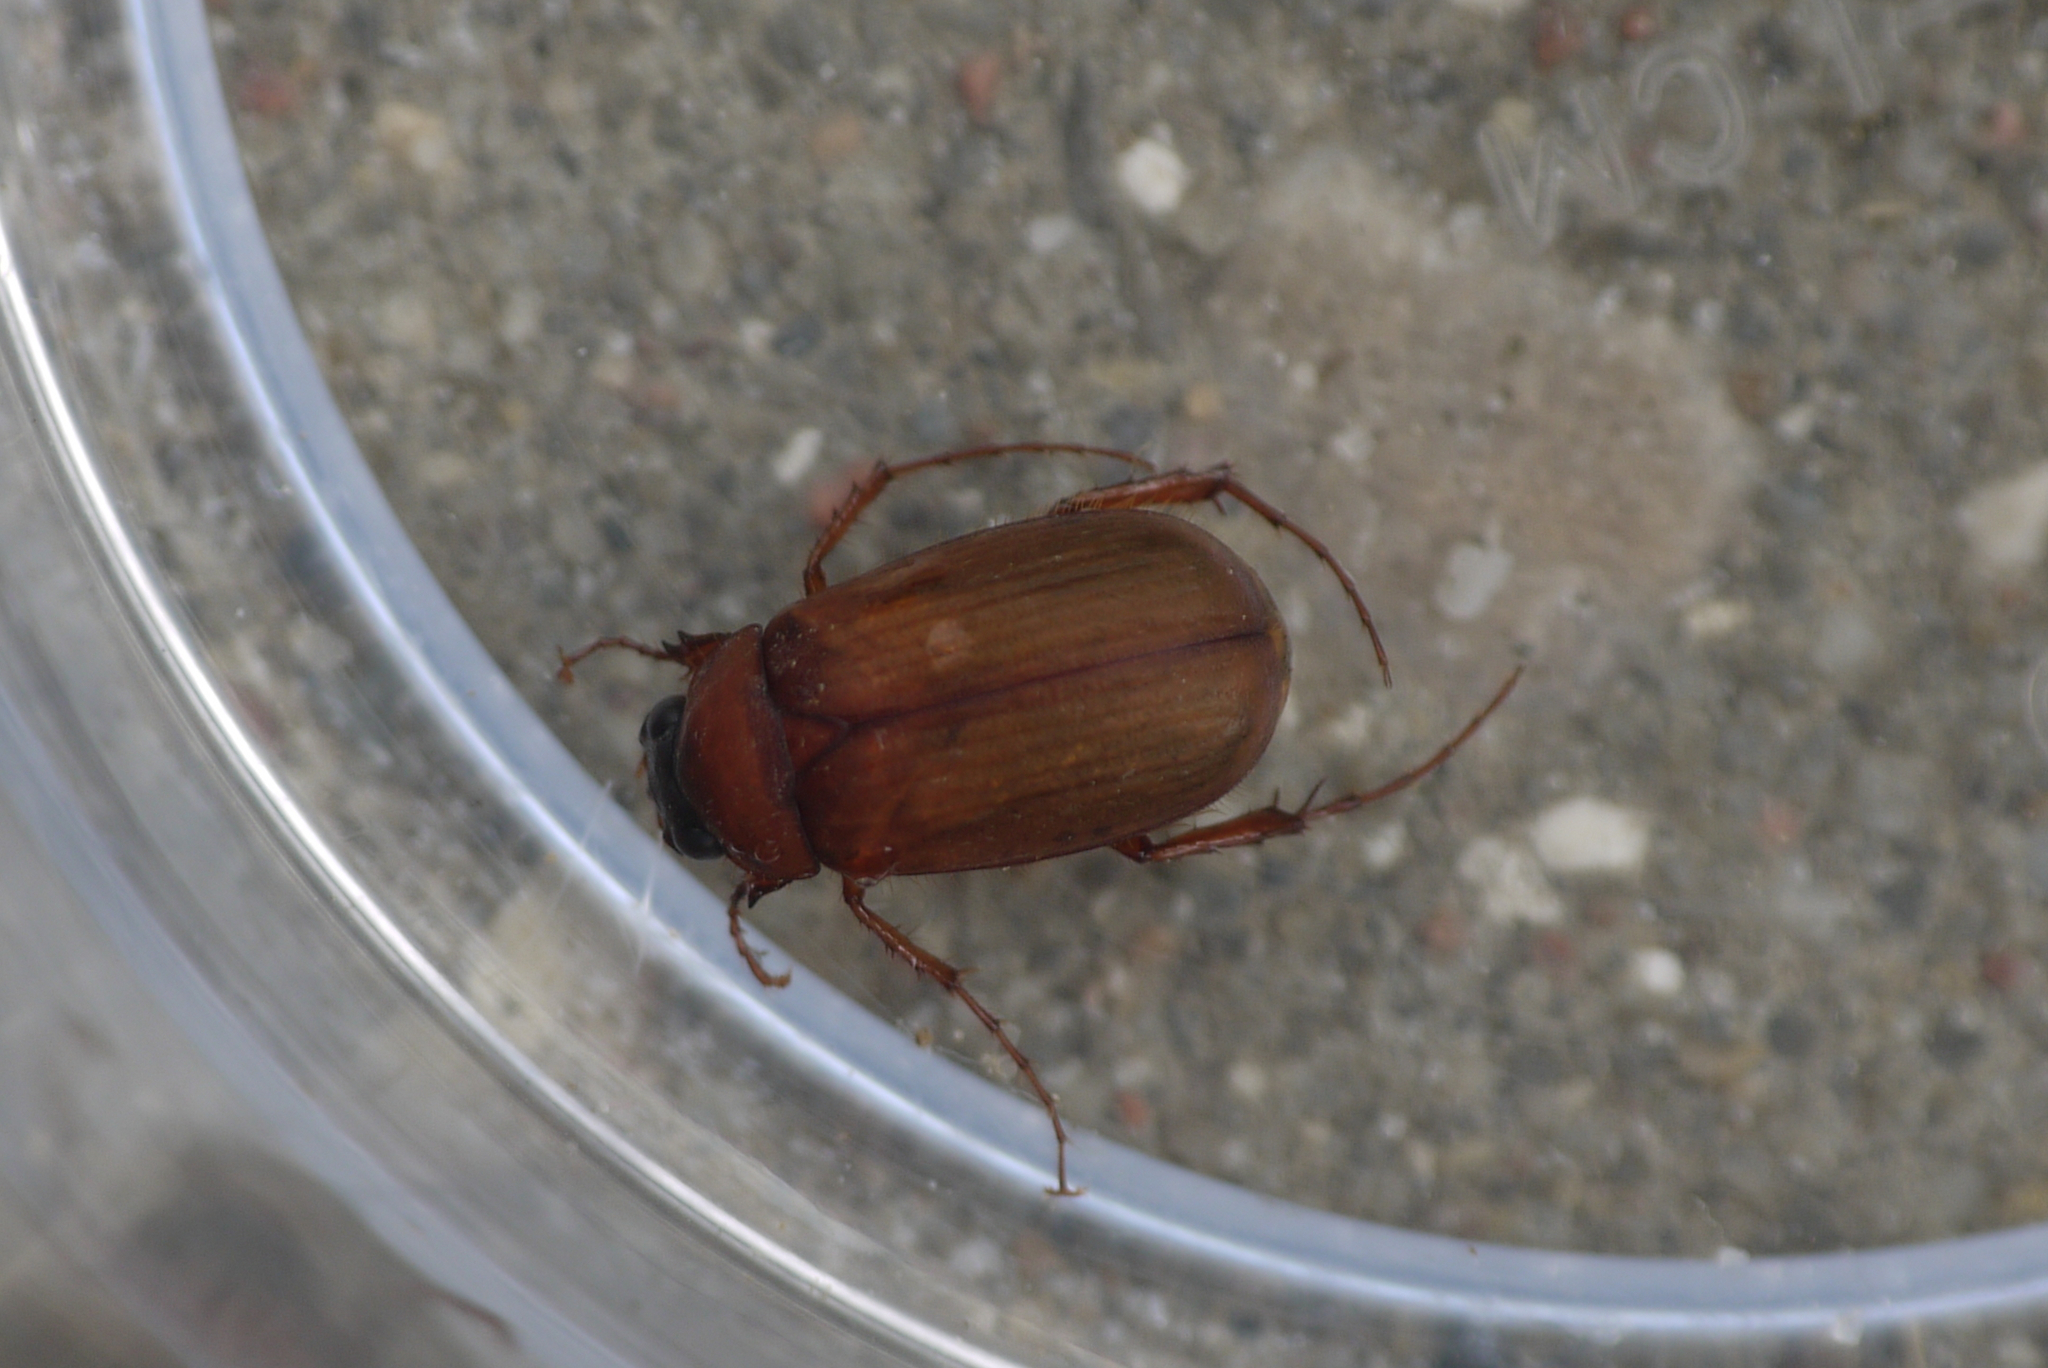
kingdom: Animalia
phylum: Arthropoda
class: Insecta
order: Coleoptera
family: Scarabaeidae
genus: Serica
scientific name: Serica brunnea
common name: Brown chafer
